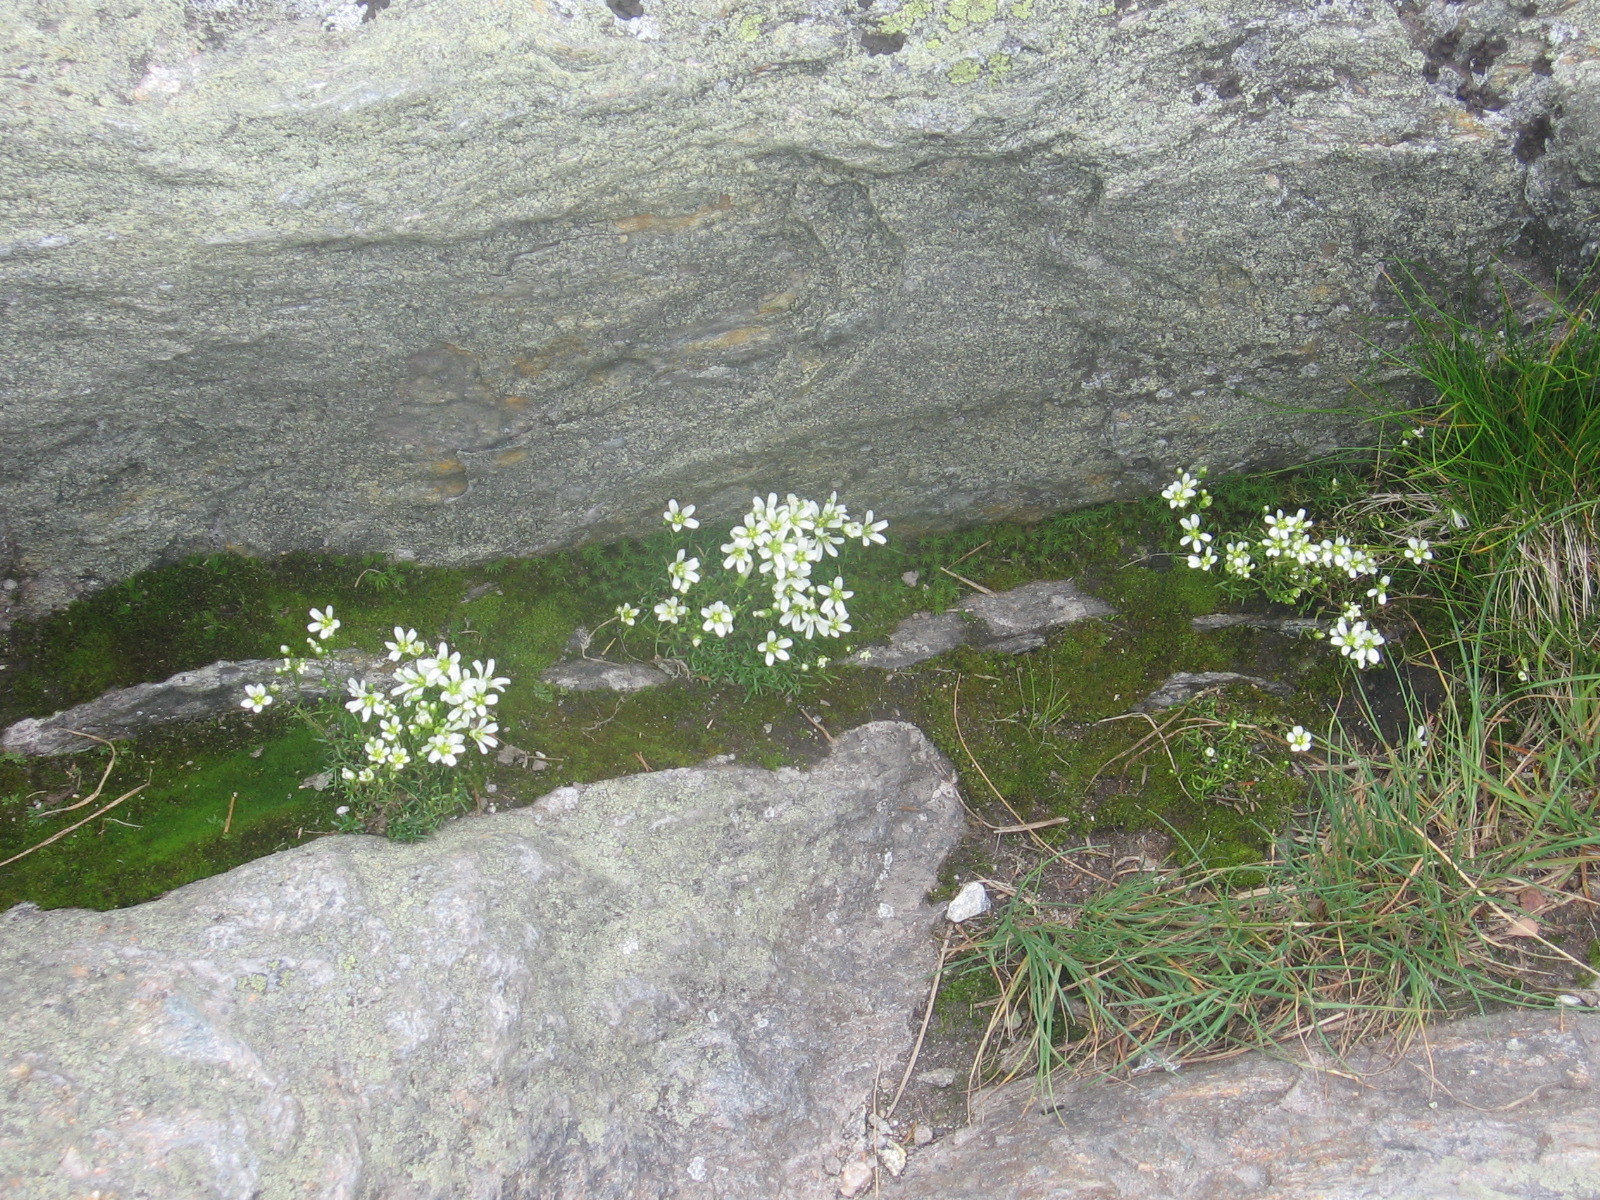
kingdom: Plantae
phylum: Tracheophyta
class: Magnoliopsida
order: Caryophyllales
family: Caryophyllaceae
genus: Geocarpon
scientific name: Geocarpon groenlandicum
